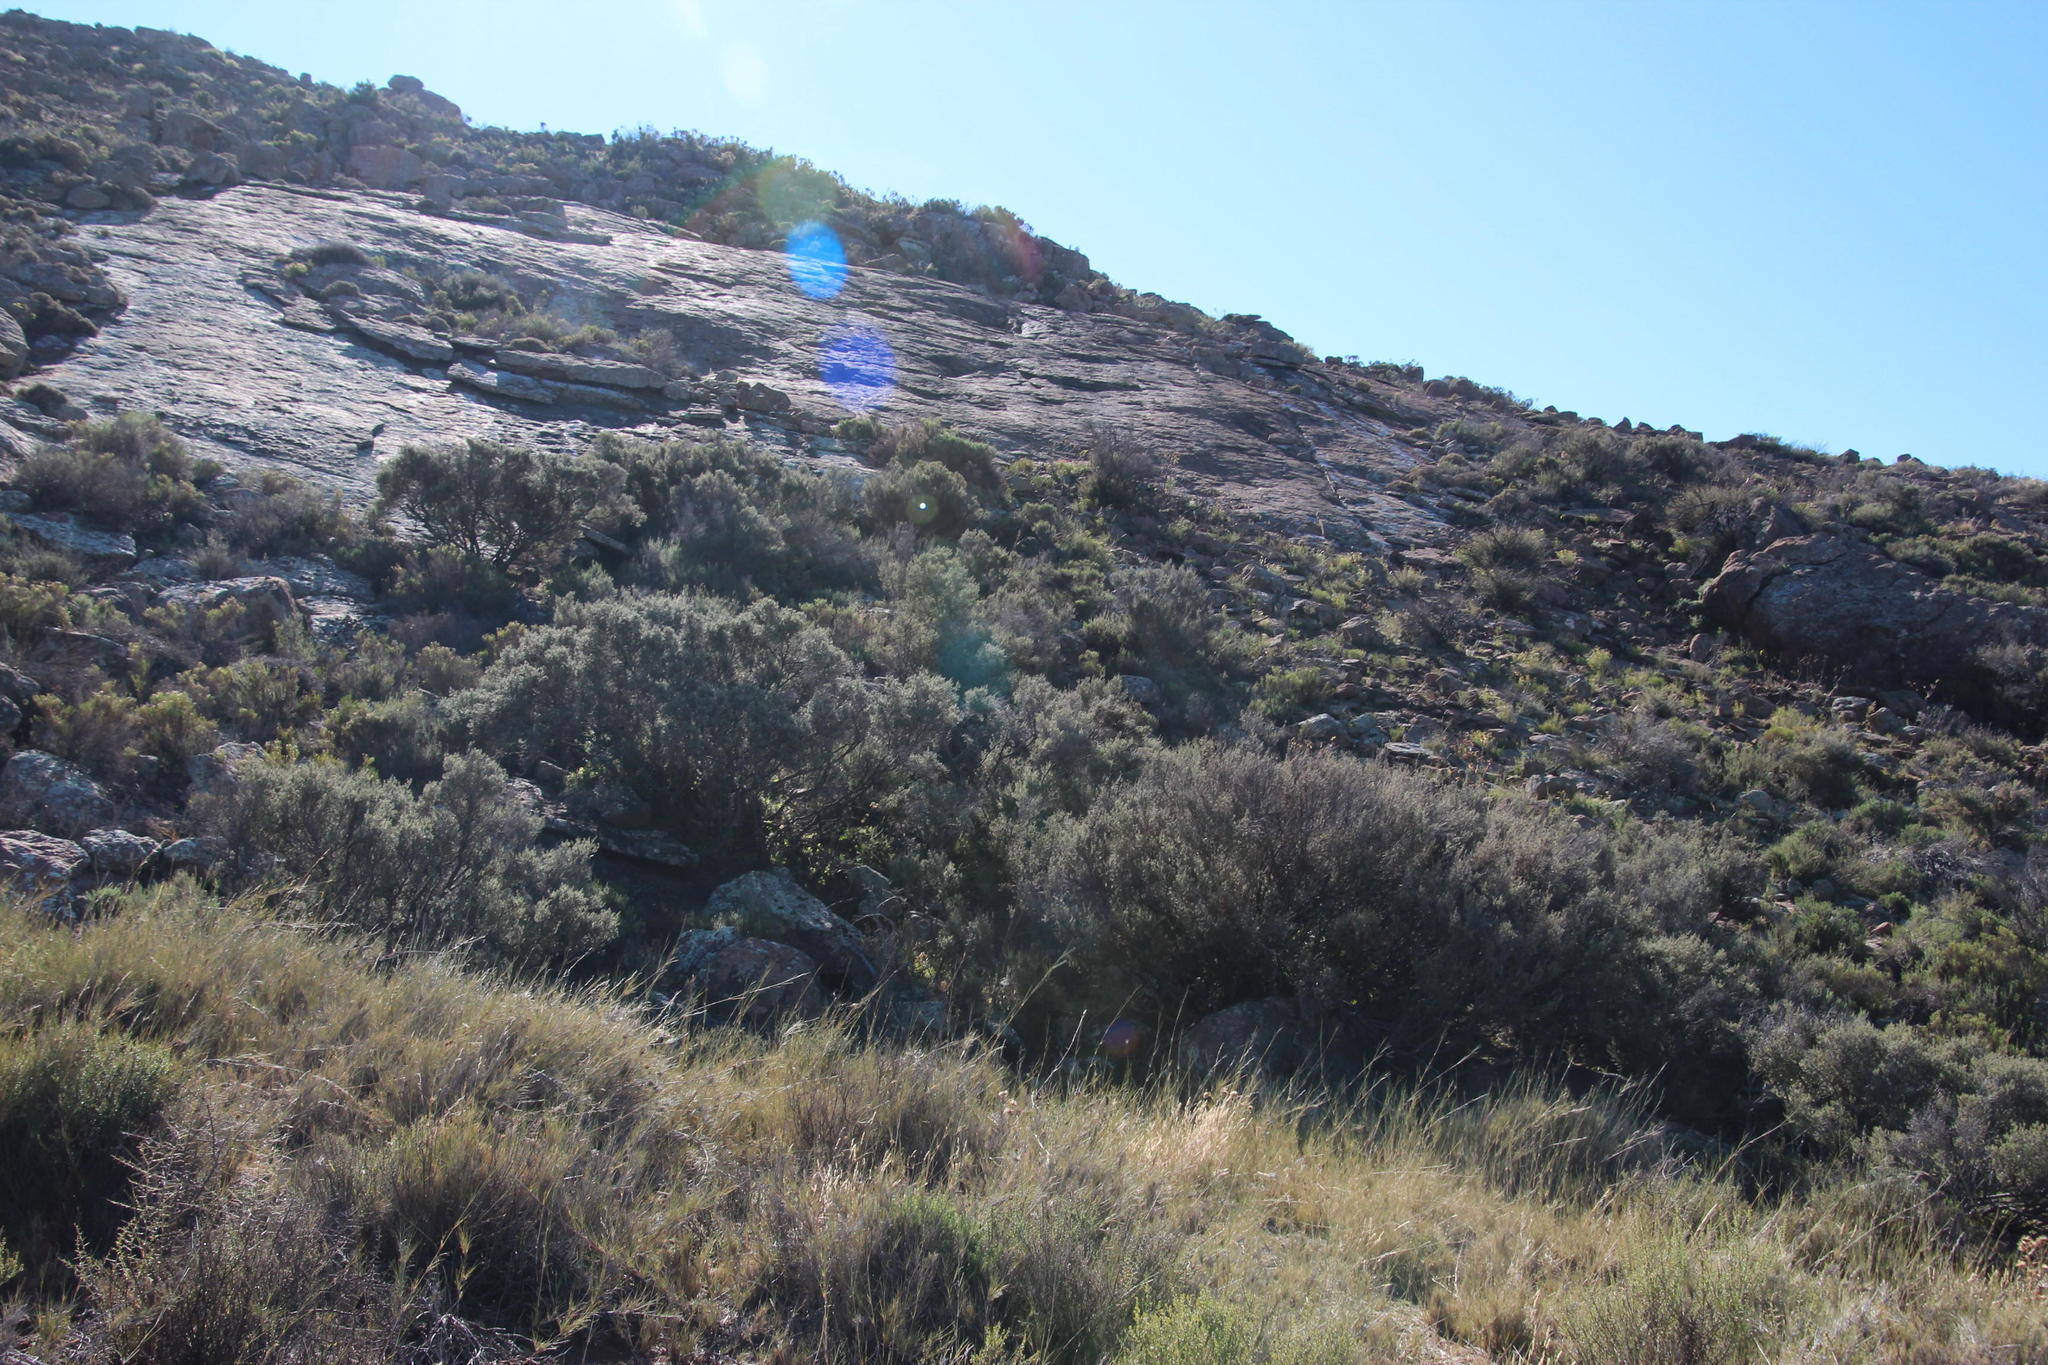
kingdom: Plantae
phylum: Tracheophyta
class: Magnoliopsida
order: Ericales
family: Ebenaceae
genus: Diospyros
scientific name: Diospyros pubescens
